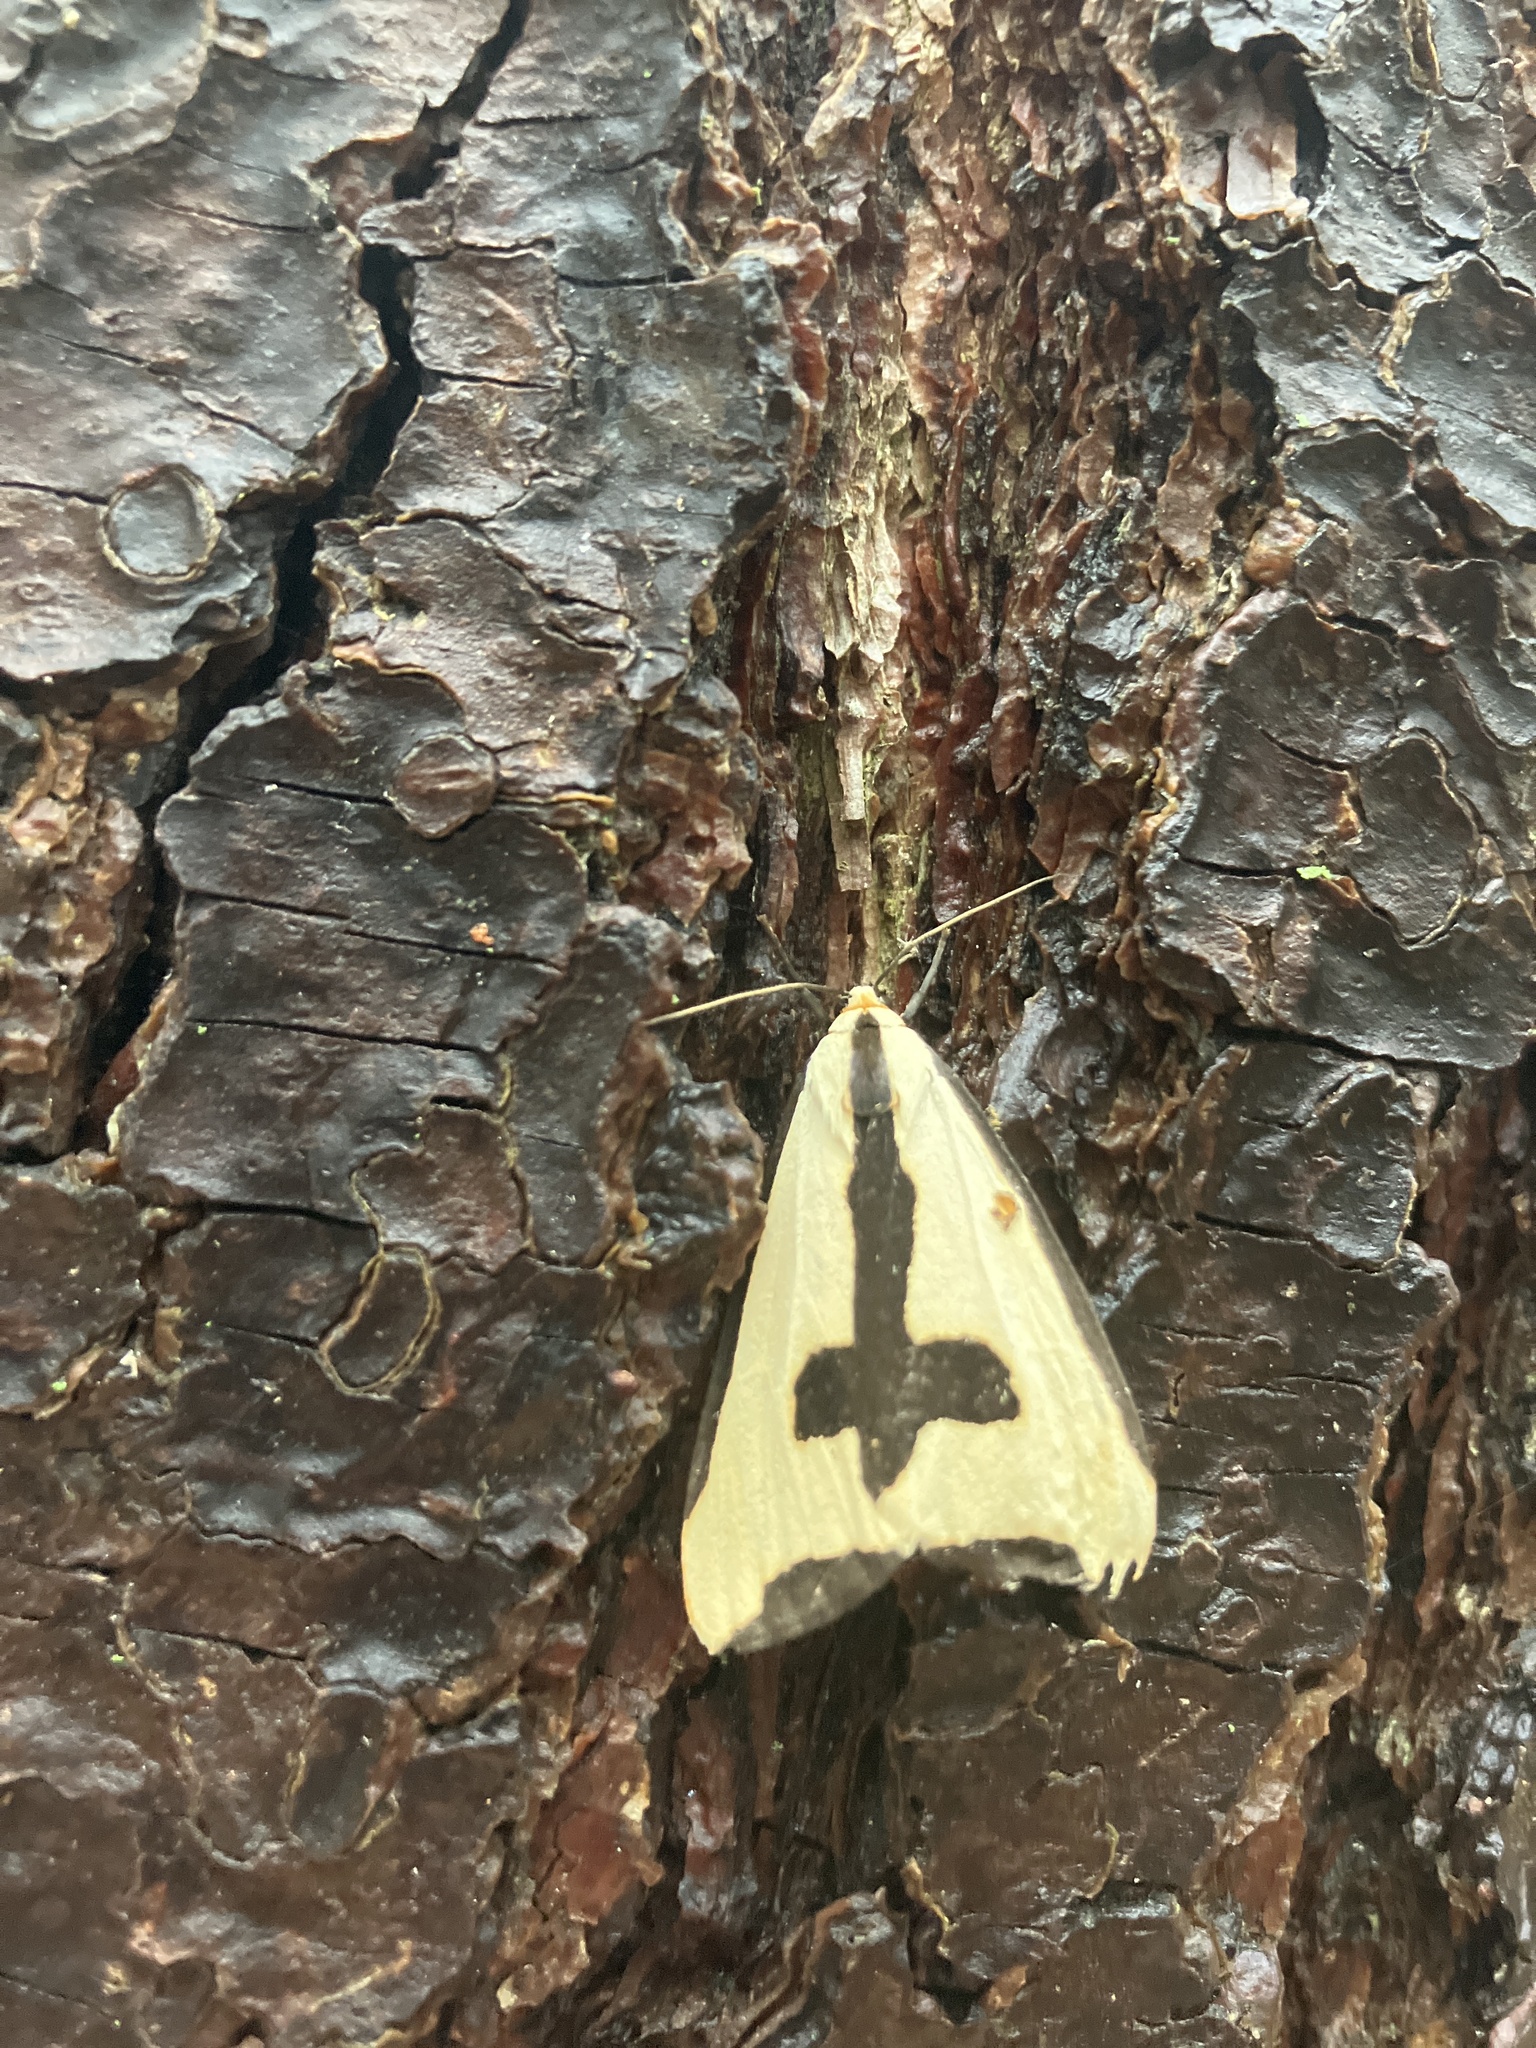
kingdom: Animalia
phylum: Arthropoda
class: Insecta
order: Lepidoptera
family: Erebidae
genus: Haploa
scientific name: Haploa clymene
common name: Clymene moth
